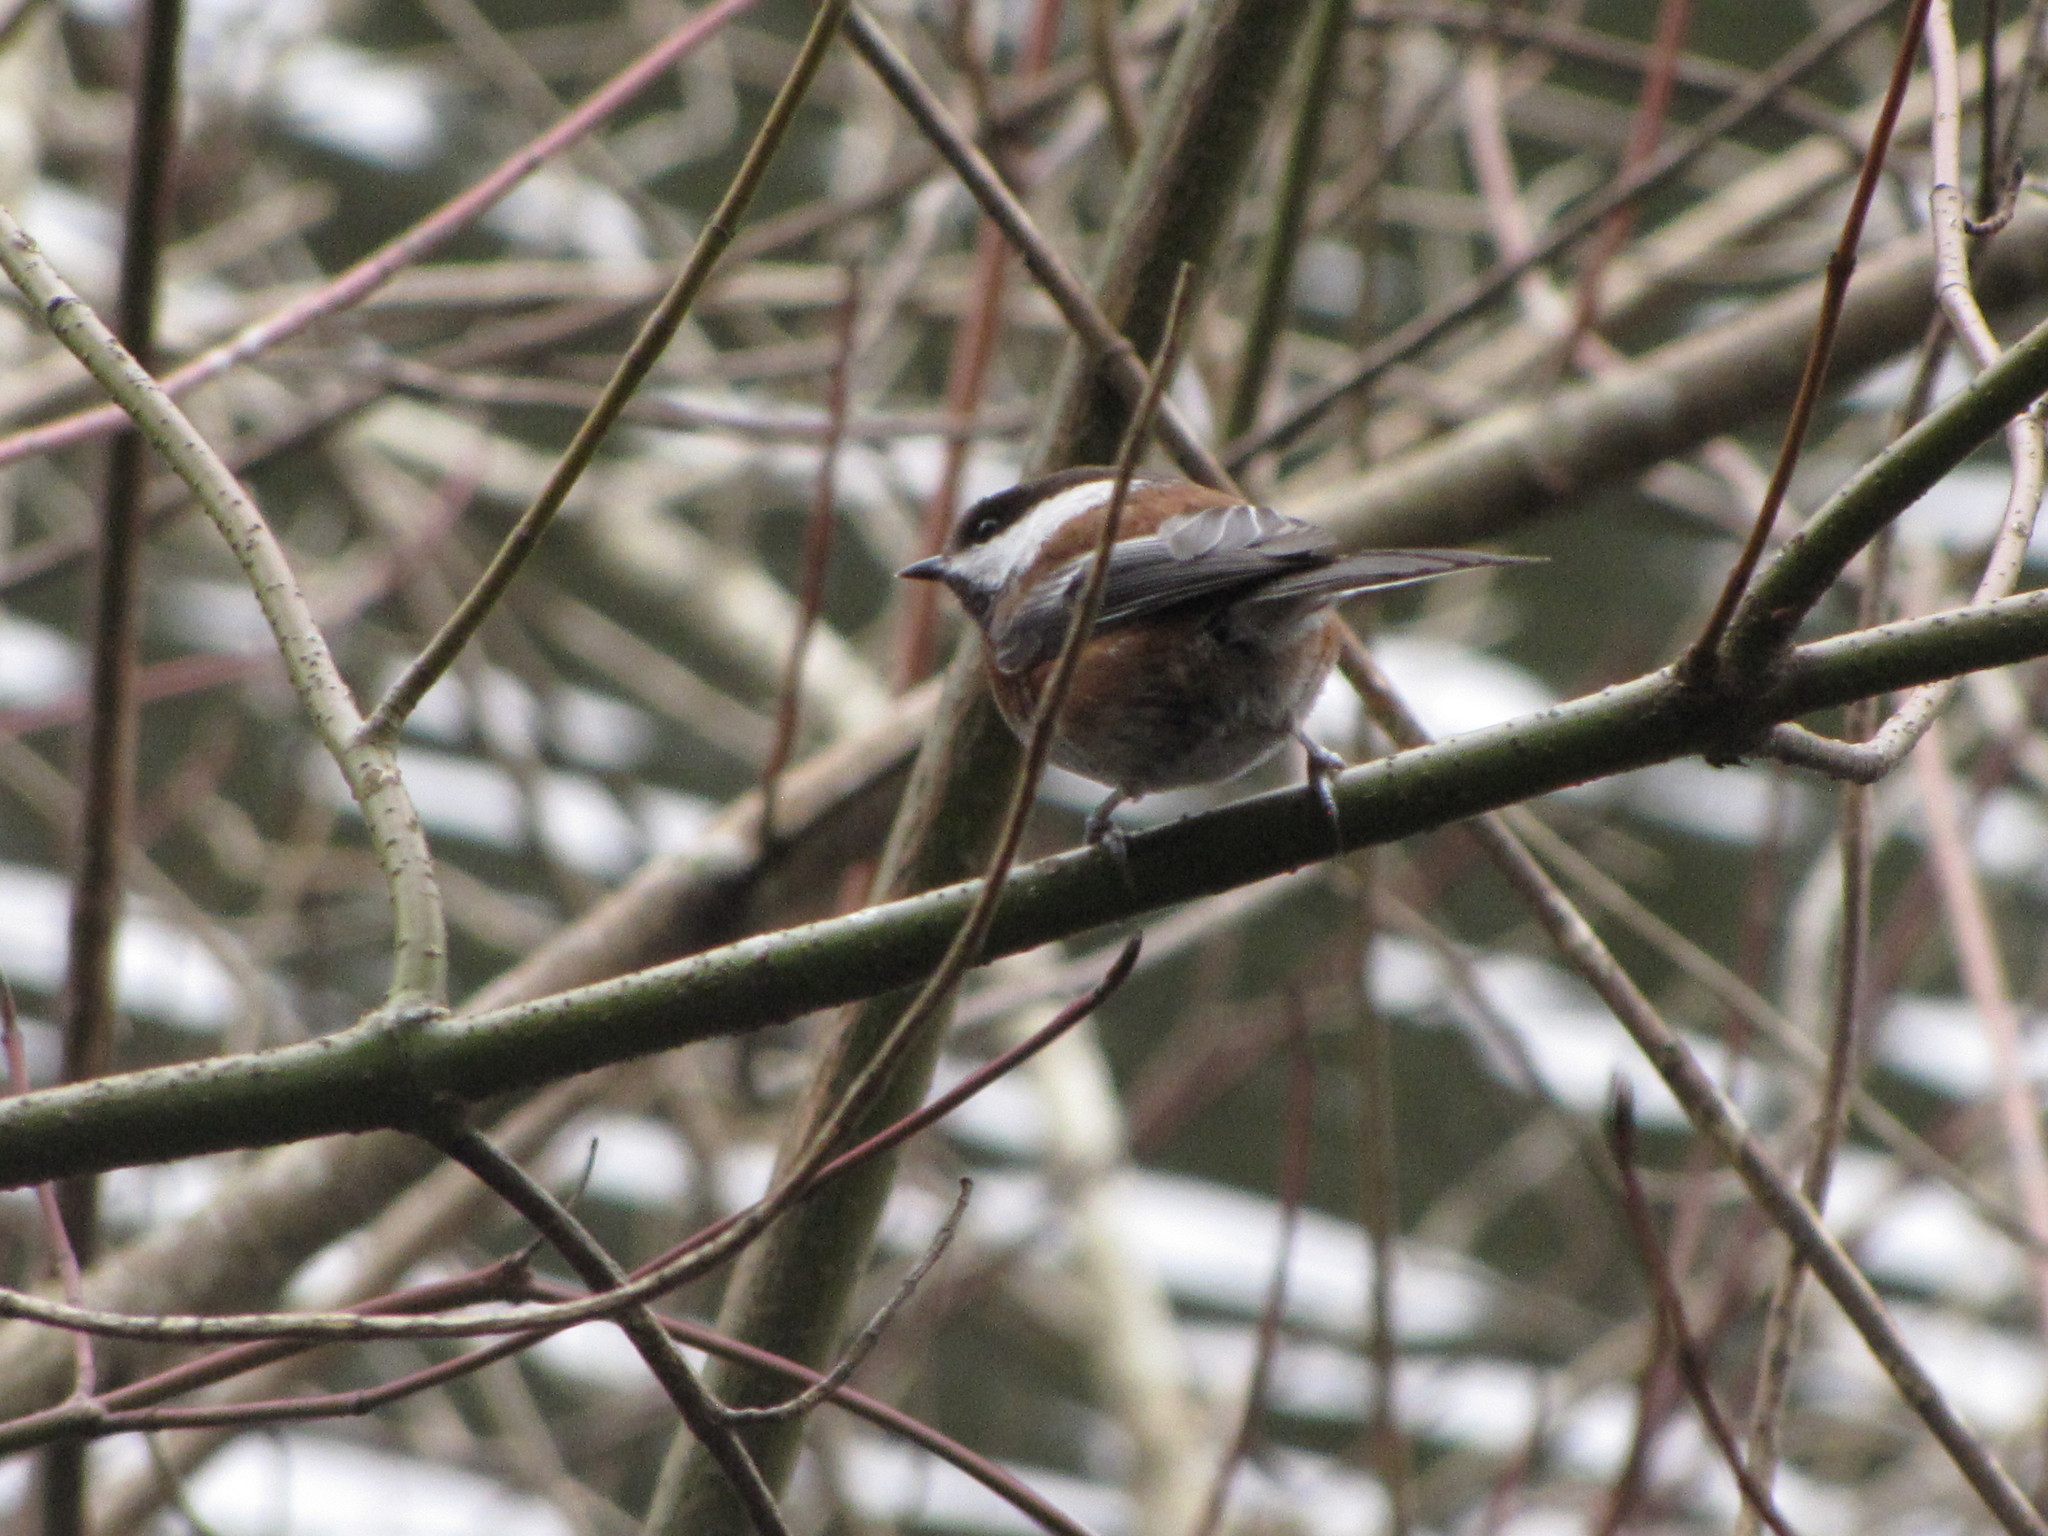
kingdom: Animalia
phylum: Chordata
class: Aves
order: Passeriformes
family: Paridae
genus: Poecile
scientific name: Poecile rufescens
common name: Chestnut-backed chickadee
